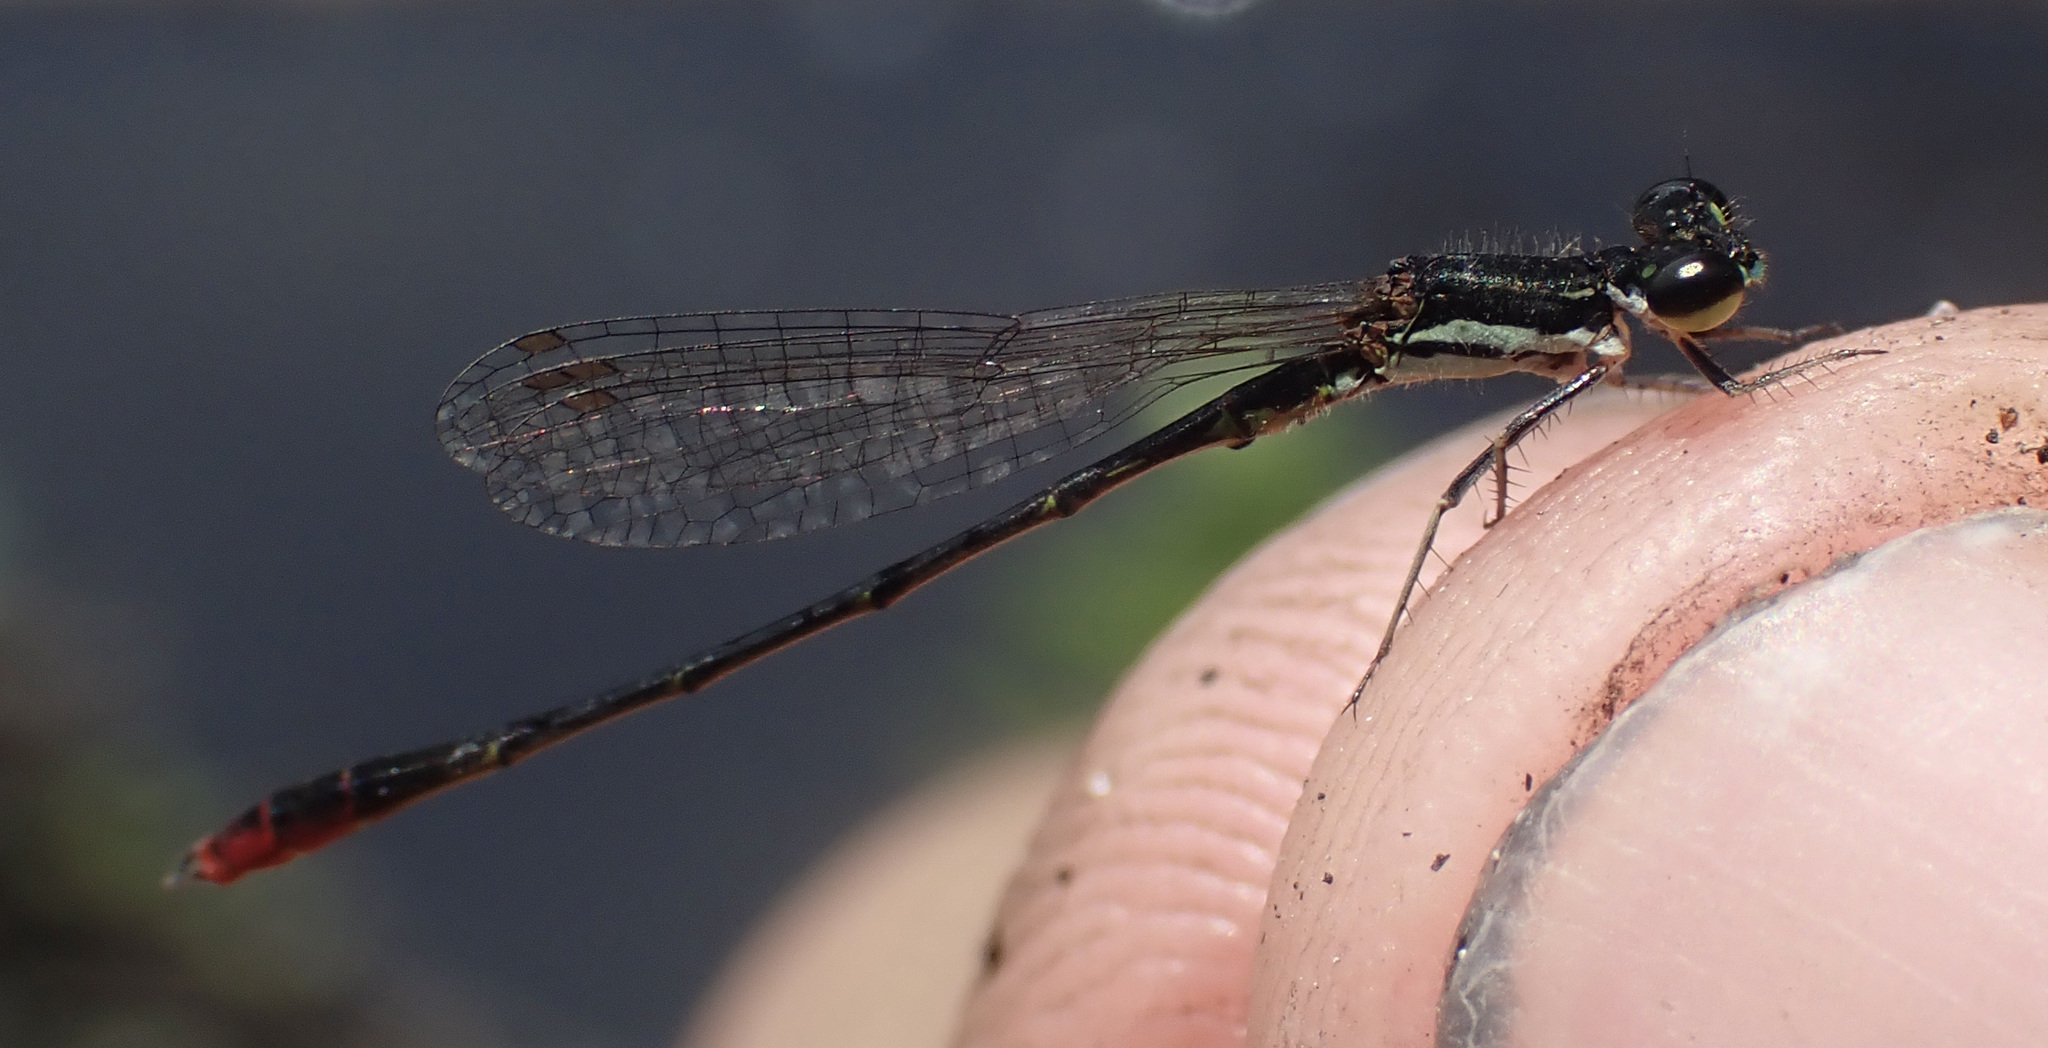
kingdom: Animalia
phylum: Arthropoda
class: Insecta
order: Odonata
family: Coenagrionidae
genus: Agriocnemis
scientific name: Agriocnemis victoria
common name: Lesser pincer-tailed wisp
